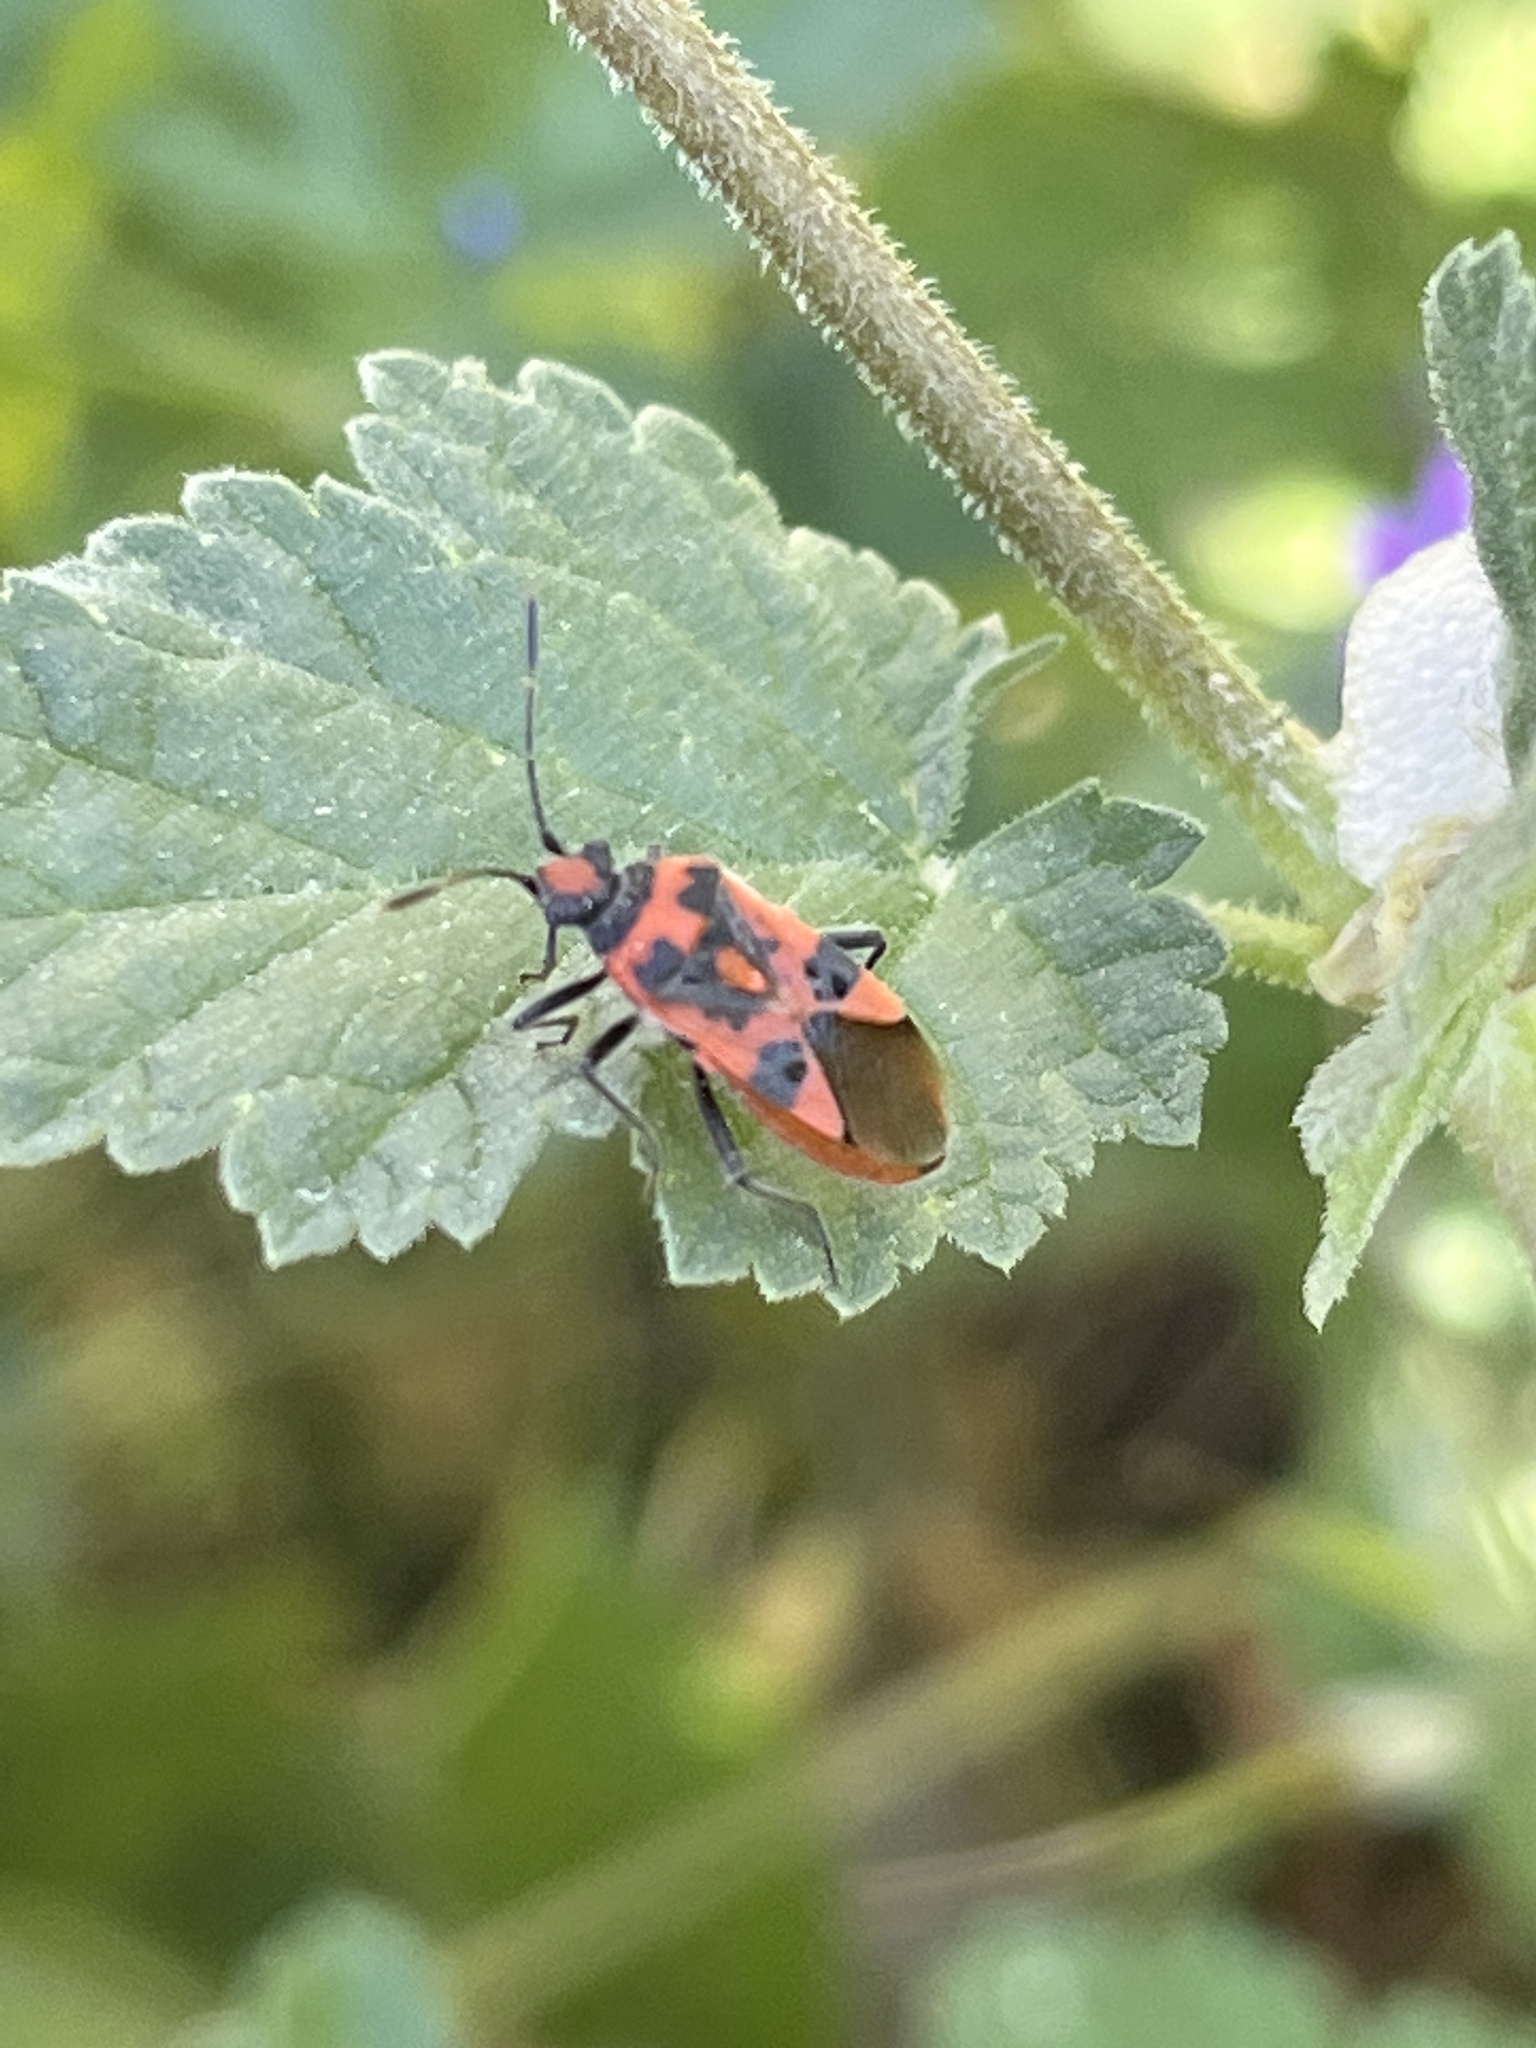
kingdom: Animalia
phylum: Arthropoda
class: Insecta
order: Hemiptera
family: Rhopalidae
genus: Corizus
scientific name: Corizus hyoscyami
